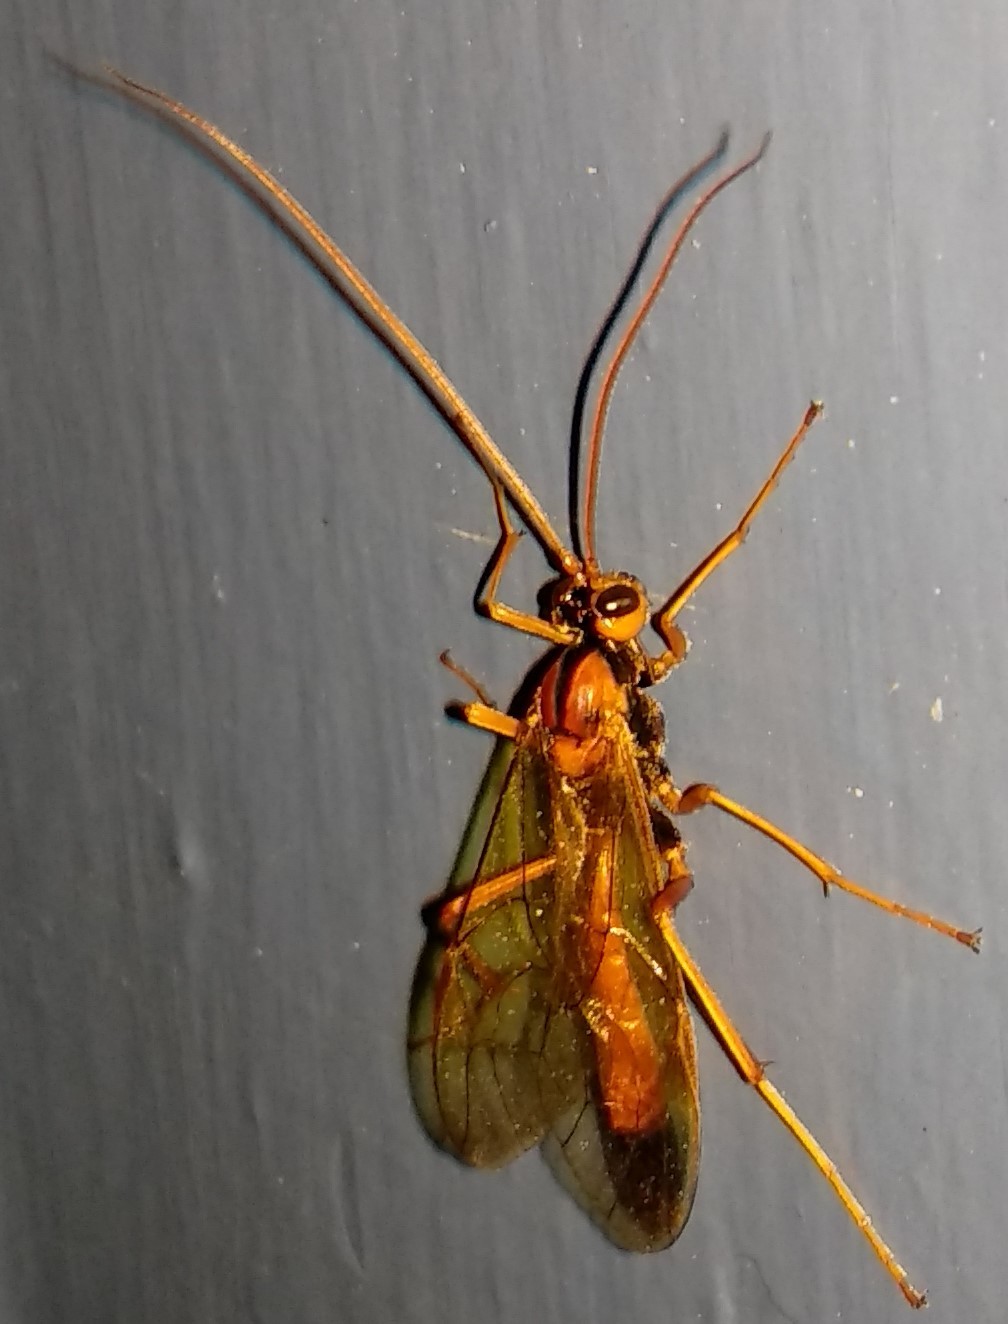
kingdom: Animalia
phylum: Arthropoda
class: Insecta
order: Hymenoptera
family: Ichneumonidae
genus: Opheltes
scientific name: Opheltes glaucopterus
